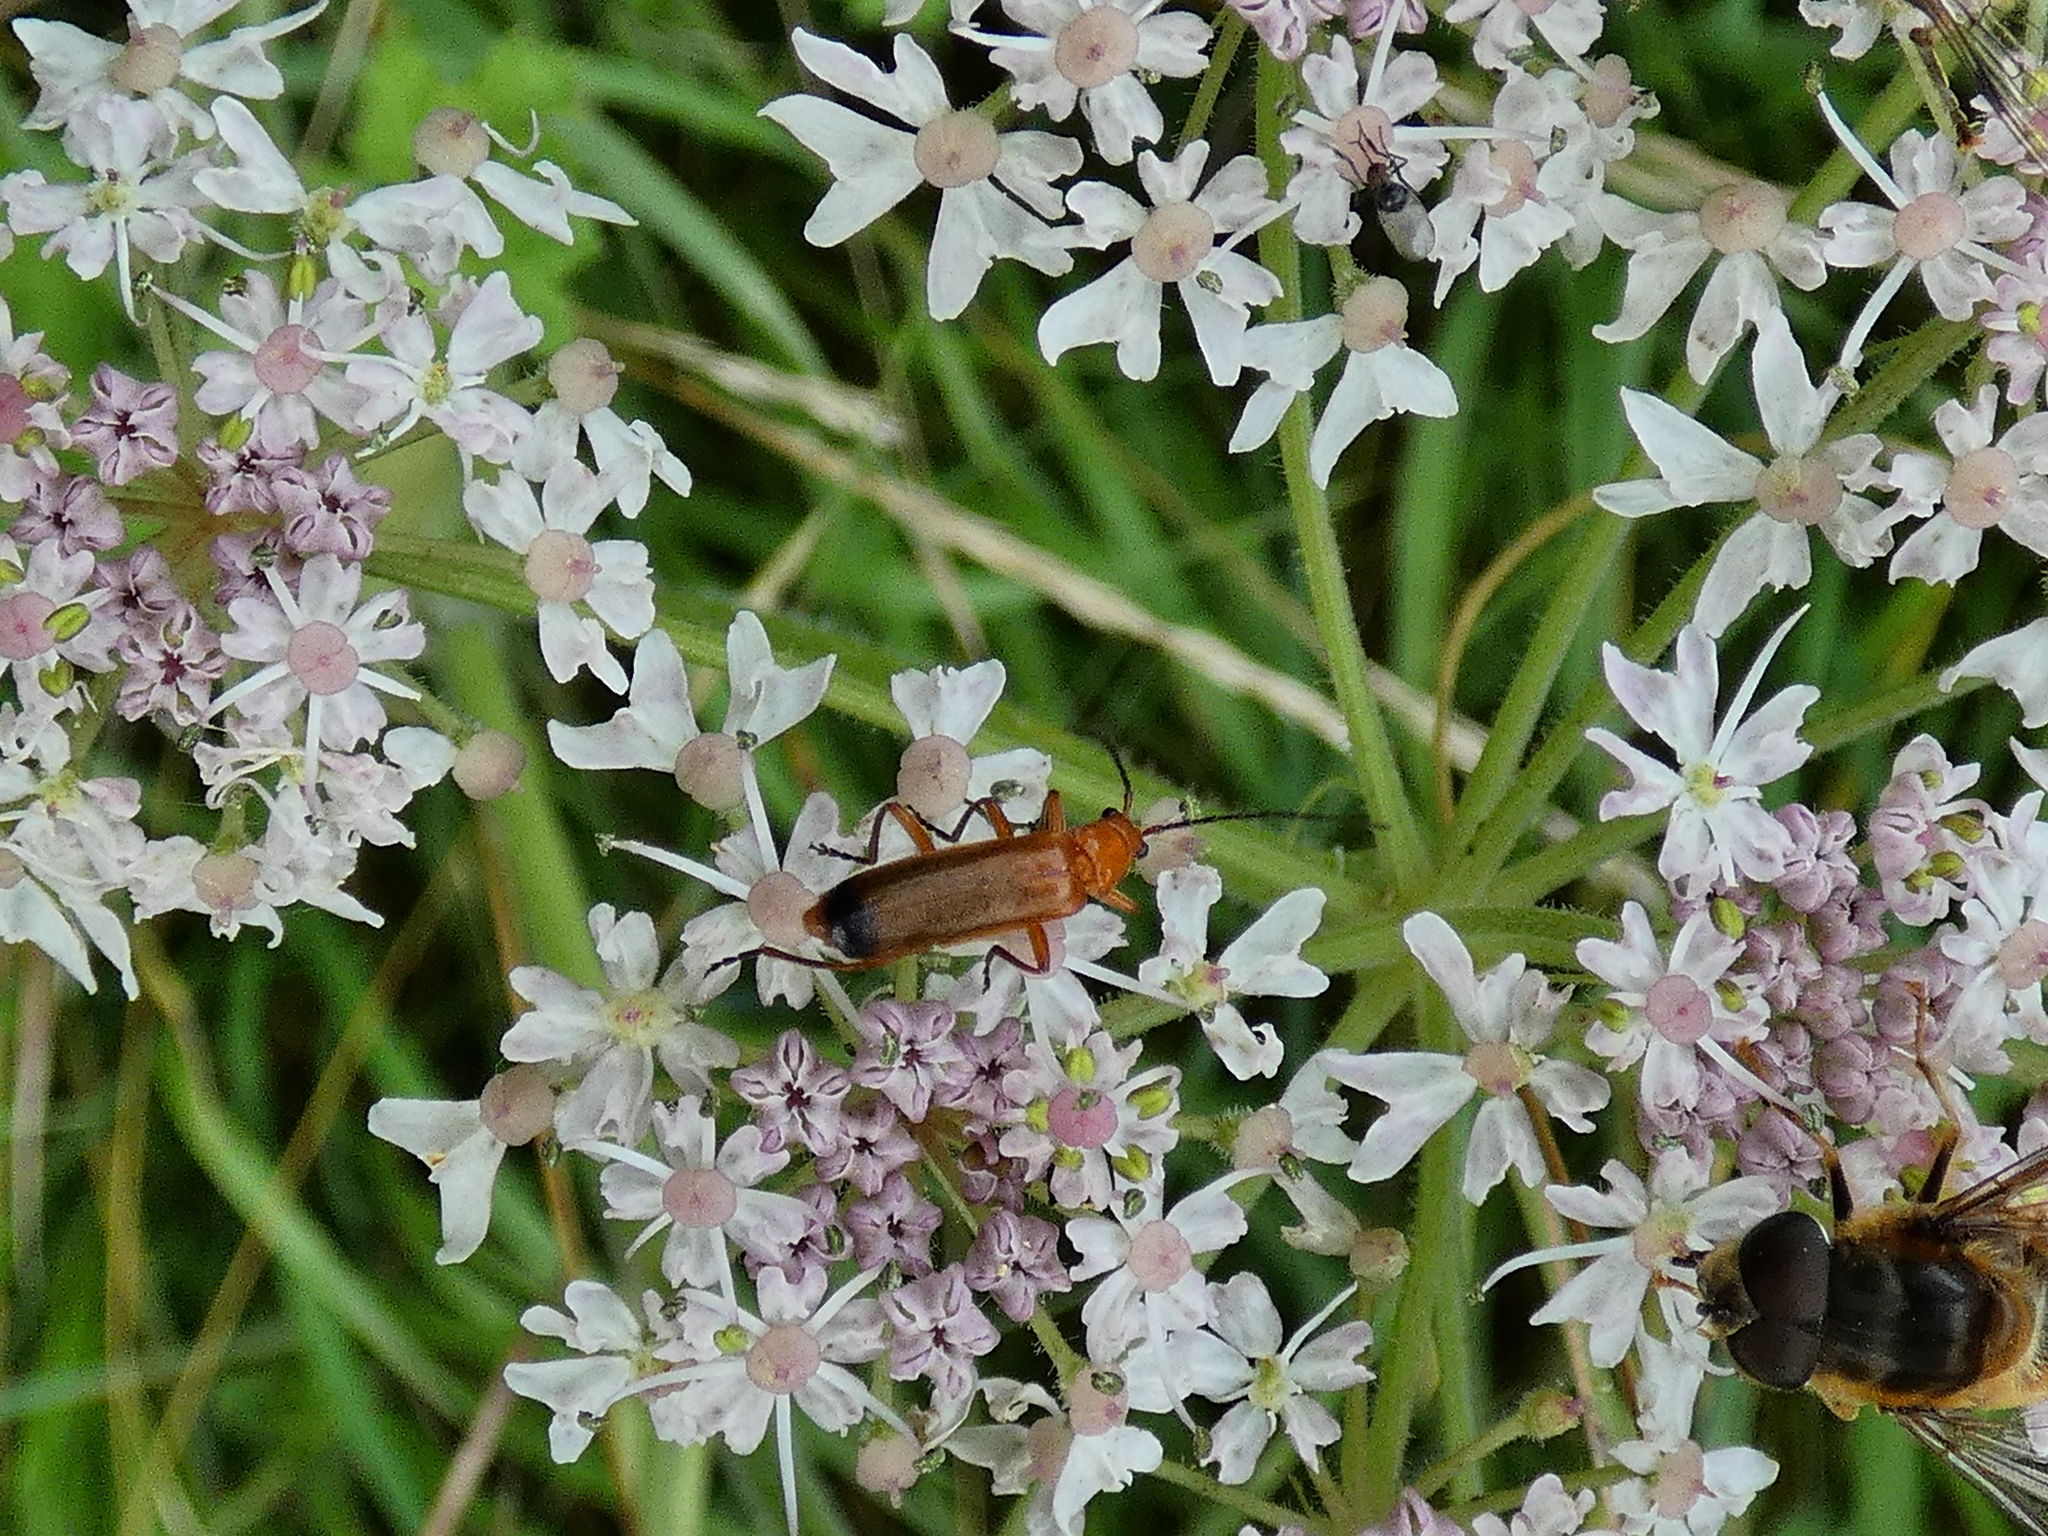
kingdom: Animalia
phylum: Arthropoda
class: Insecta
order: Coleoptera
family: Cantharidae
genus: Rhagonycha
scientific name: Rhagonycha fulva
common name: Common red soldier beetle
